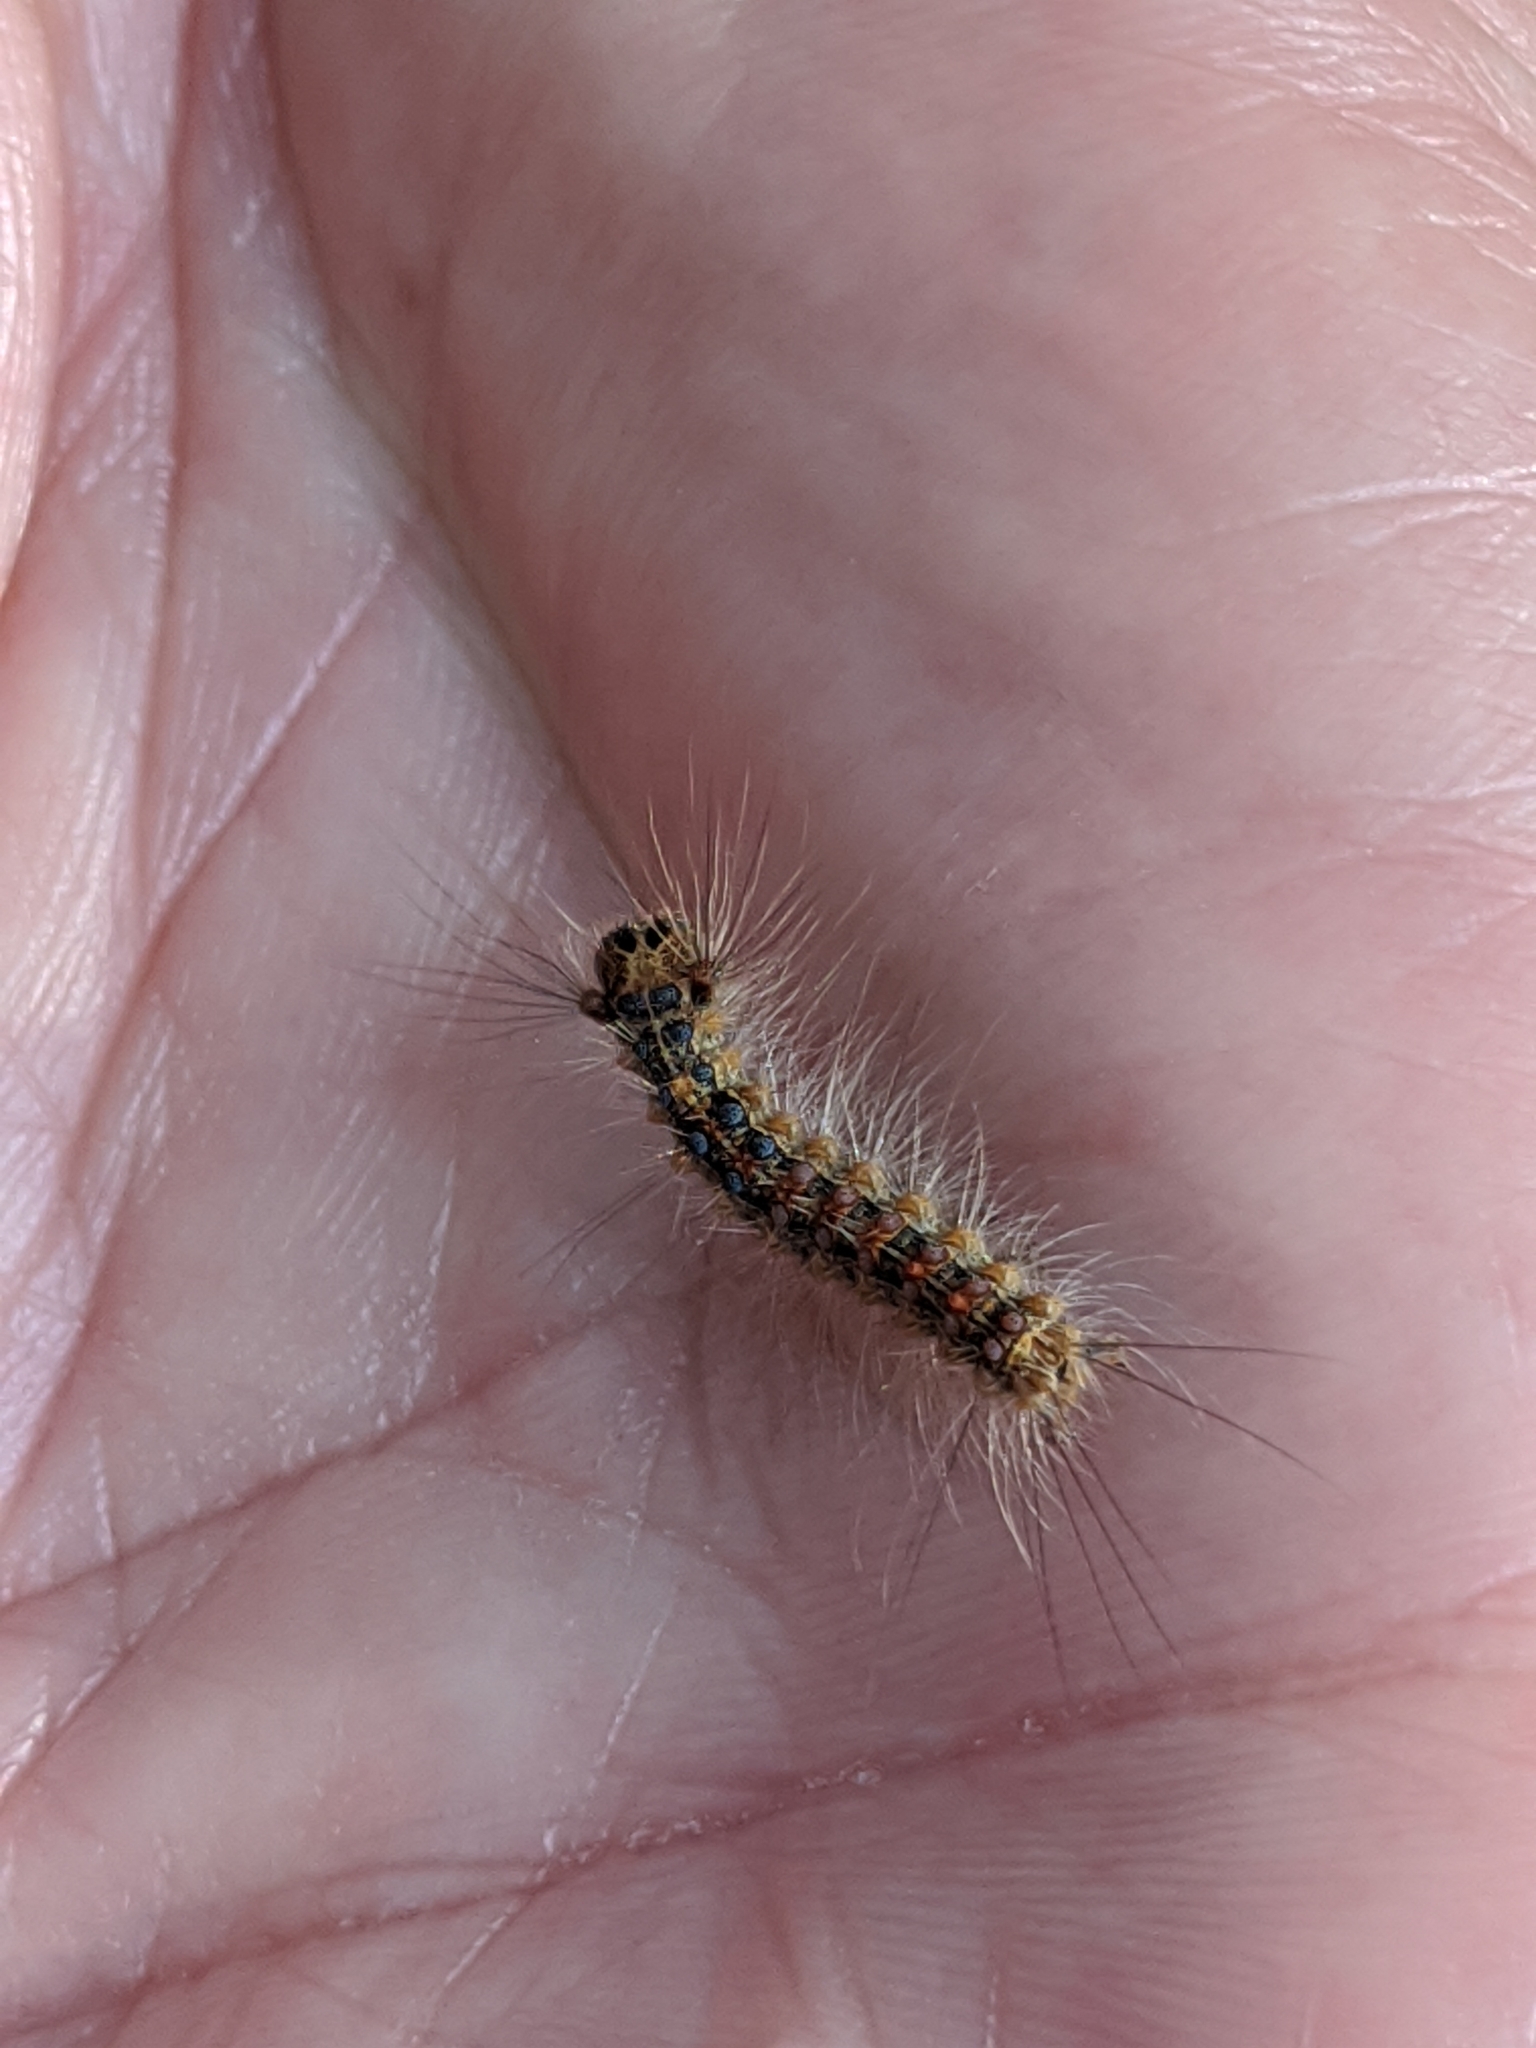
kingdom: Animalia
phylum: Arthropoda
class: Insecta
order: Lepidoptera
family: Erebidae
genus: Lymantria
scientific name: Lymantria dispar
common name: Gypsy moth
